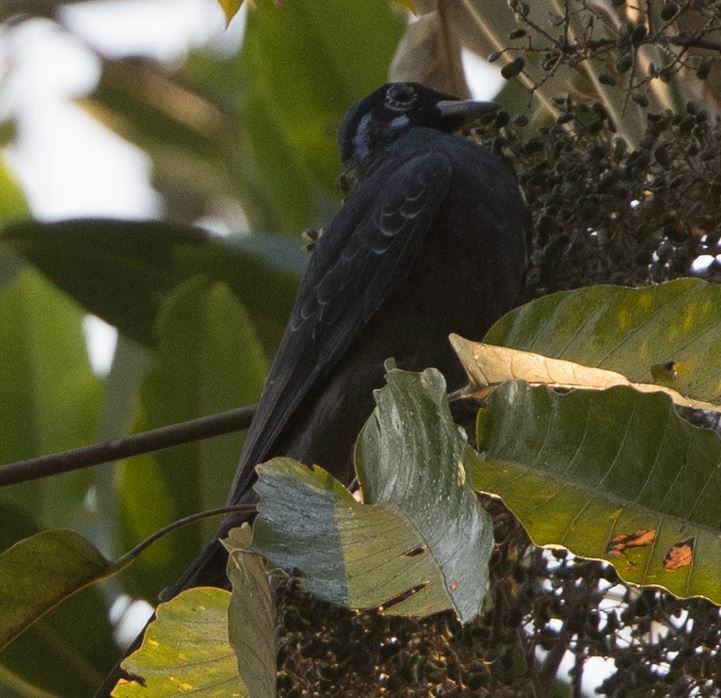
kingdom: Animalia
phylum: Chordata
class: Aves
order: Passeriformes
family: Cotingidae
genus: Gymnoderus
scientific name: Gymnoderus foetidus
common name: Bare-necked fruitcrow
